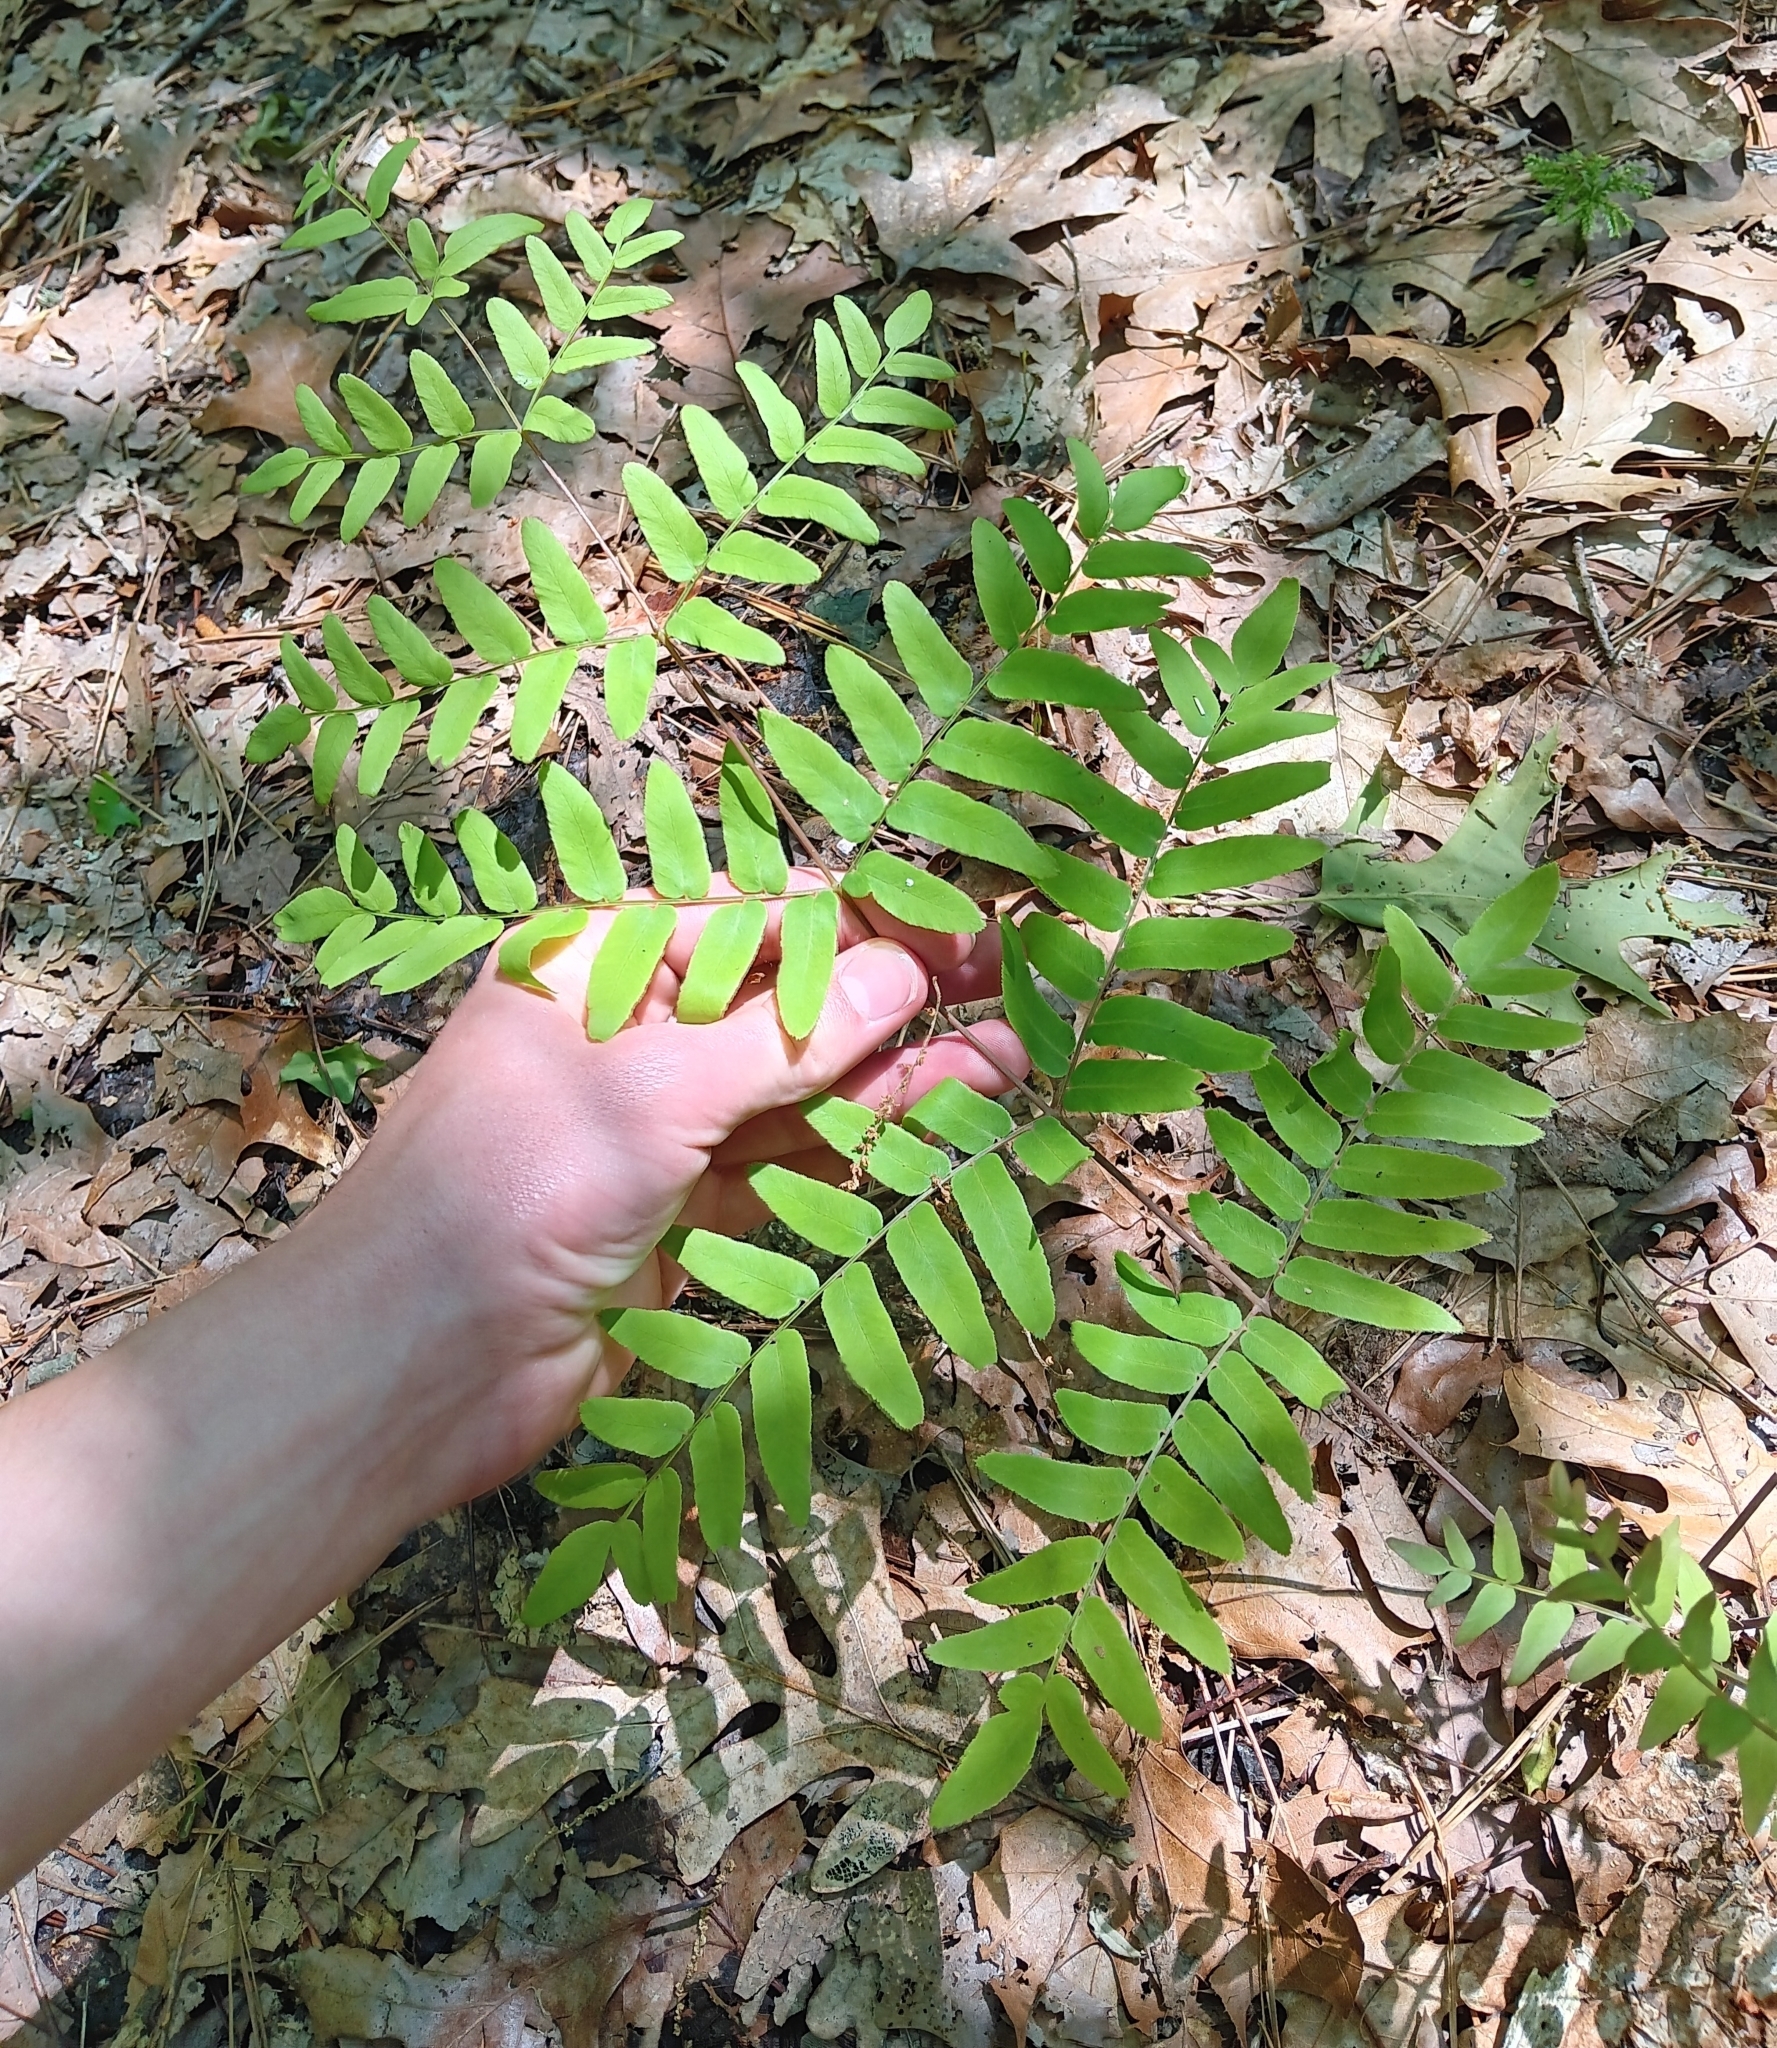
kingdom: Plantae
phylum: Tracheophyta
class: Polypodiopsida
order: Osmundales
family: Osmundaceae
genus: Osmunda
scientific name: Osmunda spectabilis
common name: American royal fern
